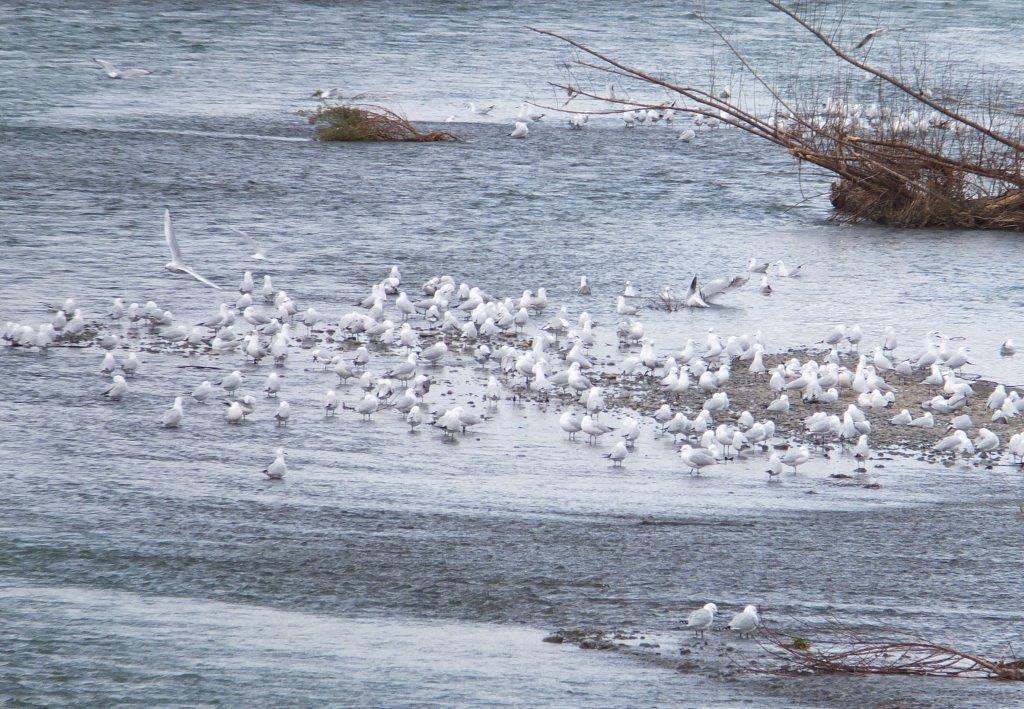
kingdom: Animalia
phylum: Chordata
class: Aves
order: Charadriiformes
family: Laridae
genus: Chroicocephalus
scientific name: Chroicocephalus bulleri
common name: Black-billed gull
